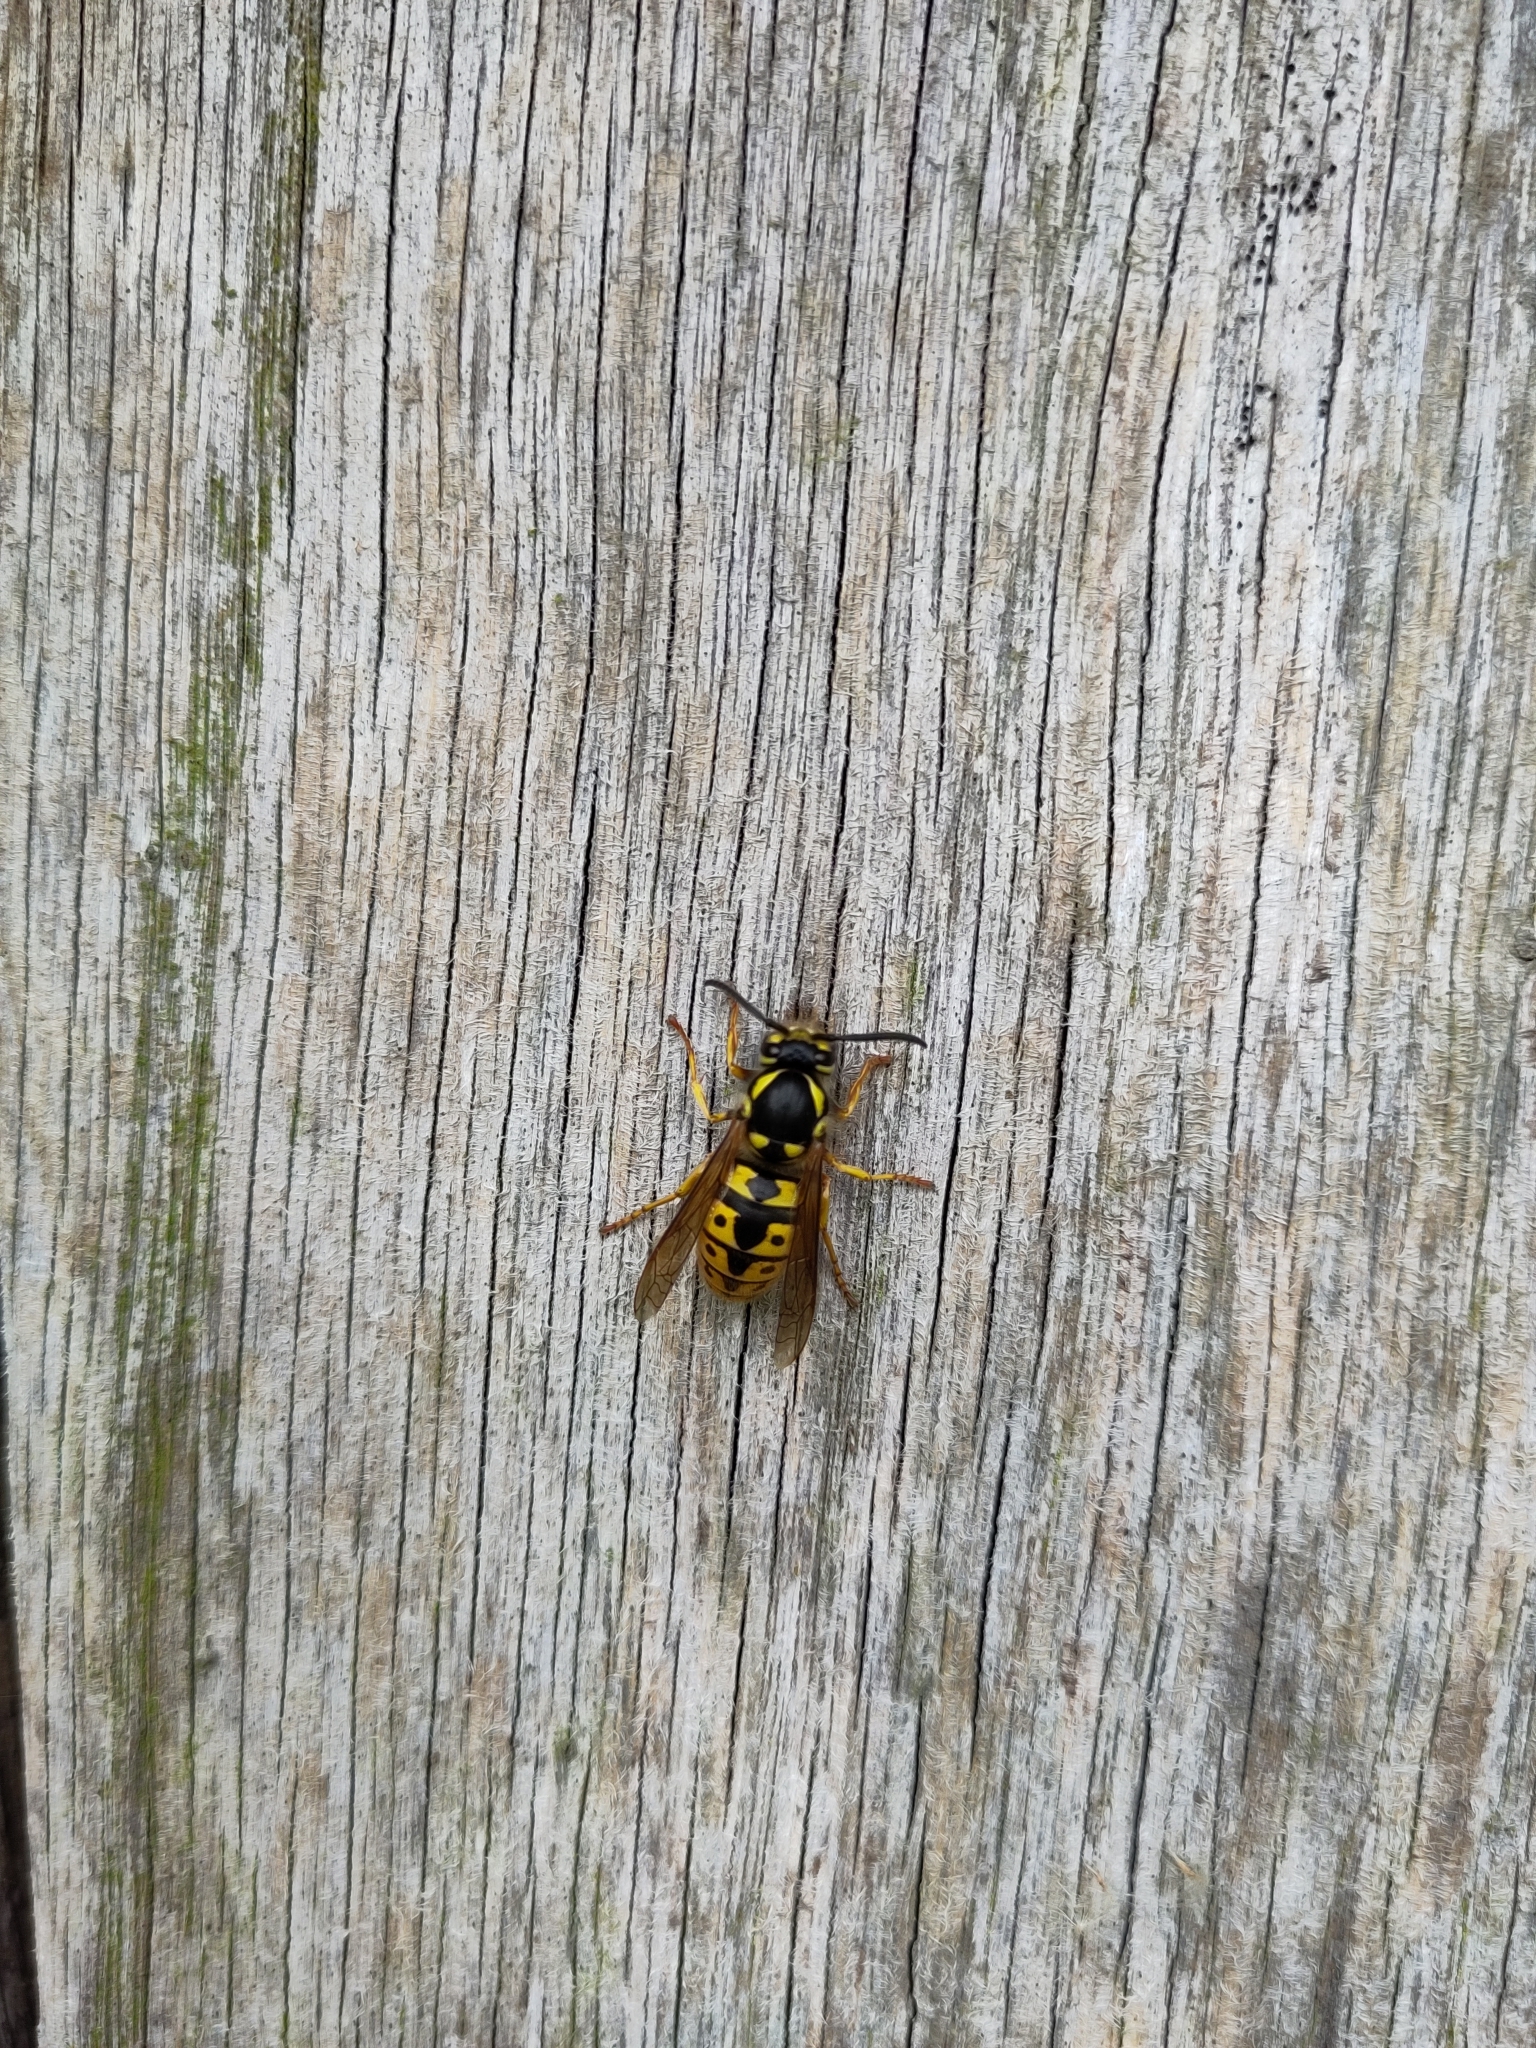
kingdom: Animalia
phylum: Arthropoda
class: Insecta
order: Hymenoptera
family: Vespidae
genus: Vespula
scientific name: Vespula germanica
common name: German wasp
